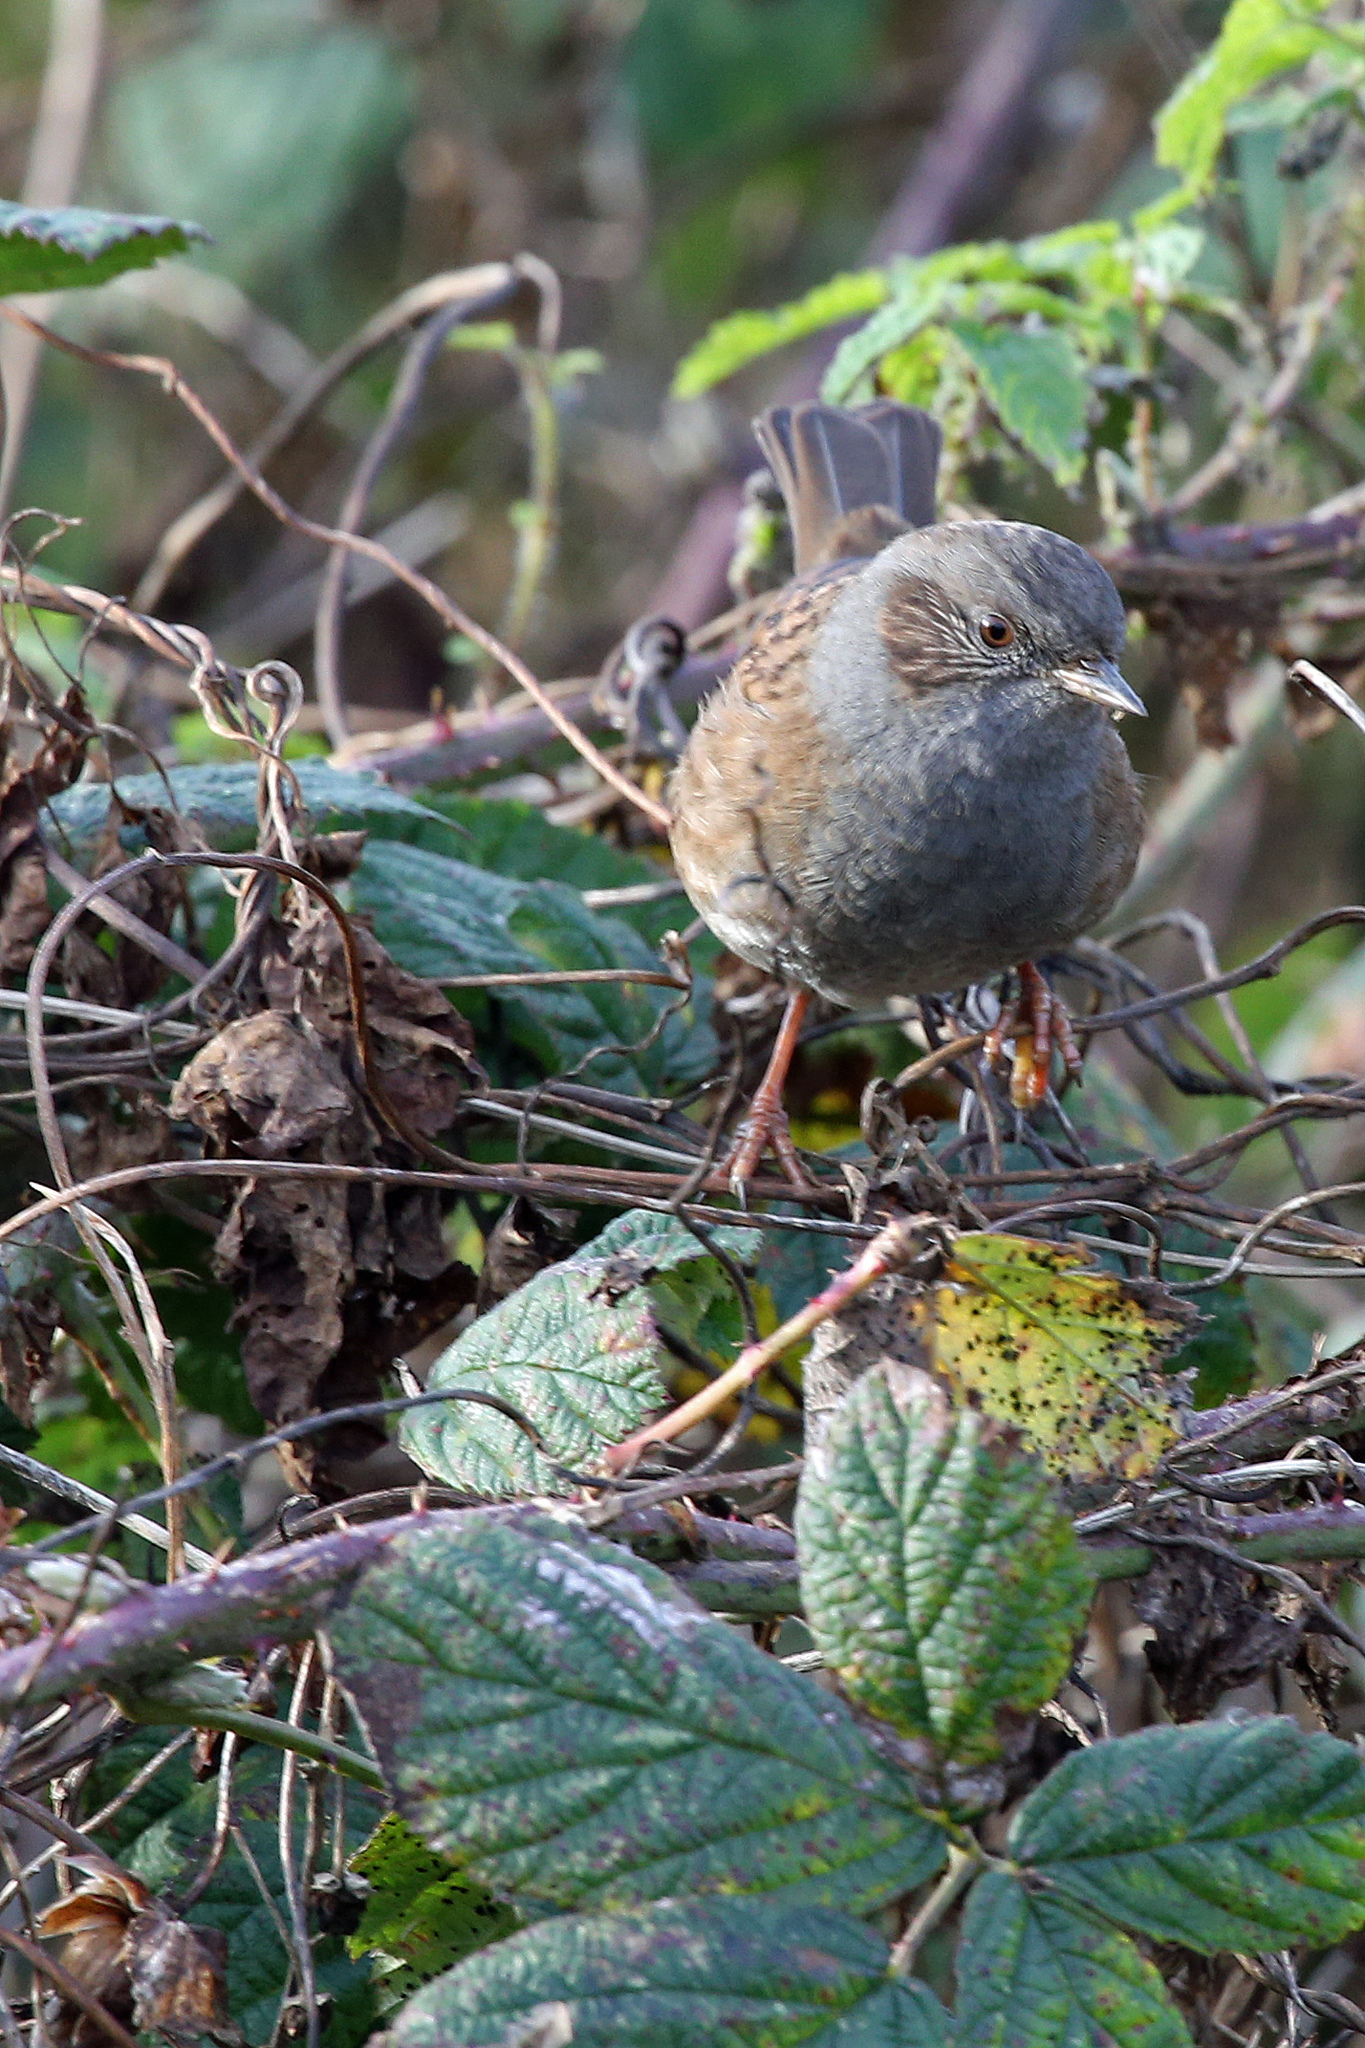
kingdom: Animalia
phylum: Chordata
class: Aves
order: Passeriformes
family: Prunellidae
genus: Prunella
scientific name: Prunella modularis
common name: Dunnock
